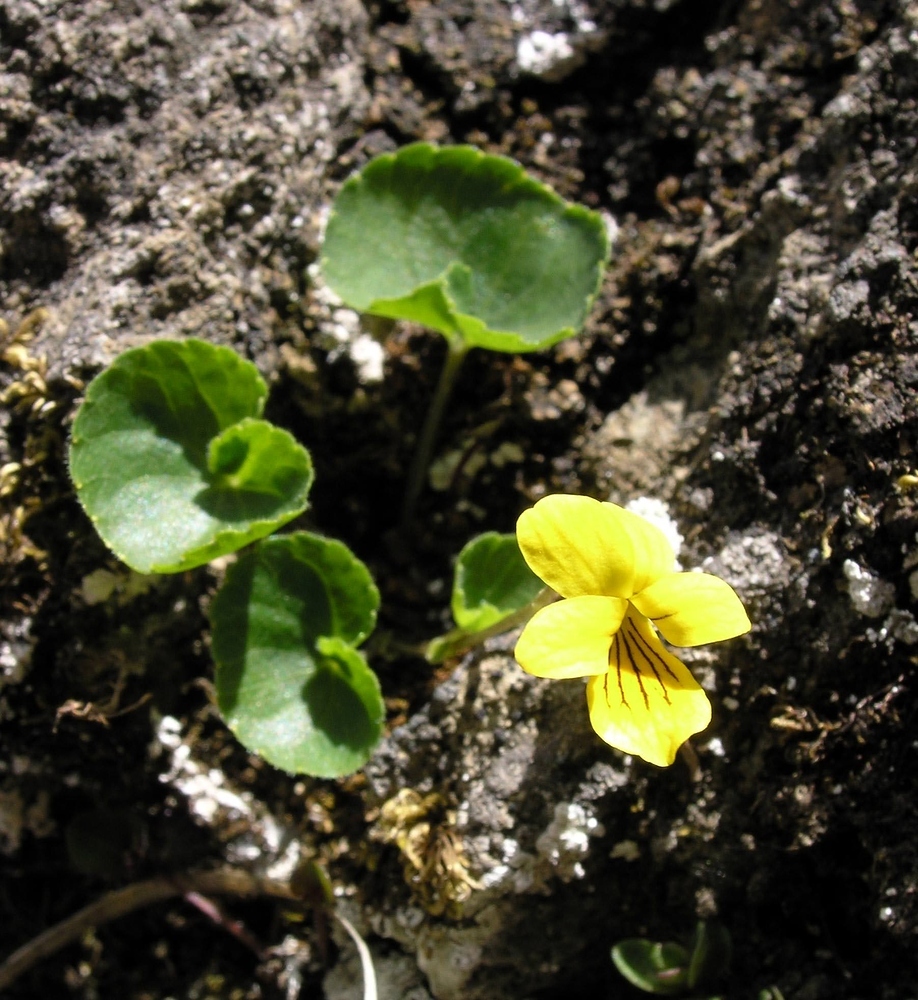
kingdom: Plantae
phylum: Tracheophyta
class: Magnoliopsida
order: Malpighiales
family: Violaceae
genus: Viola
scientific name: Viola biflora
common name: Alpine yellow violet
